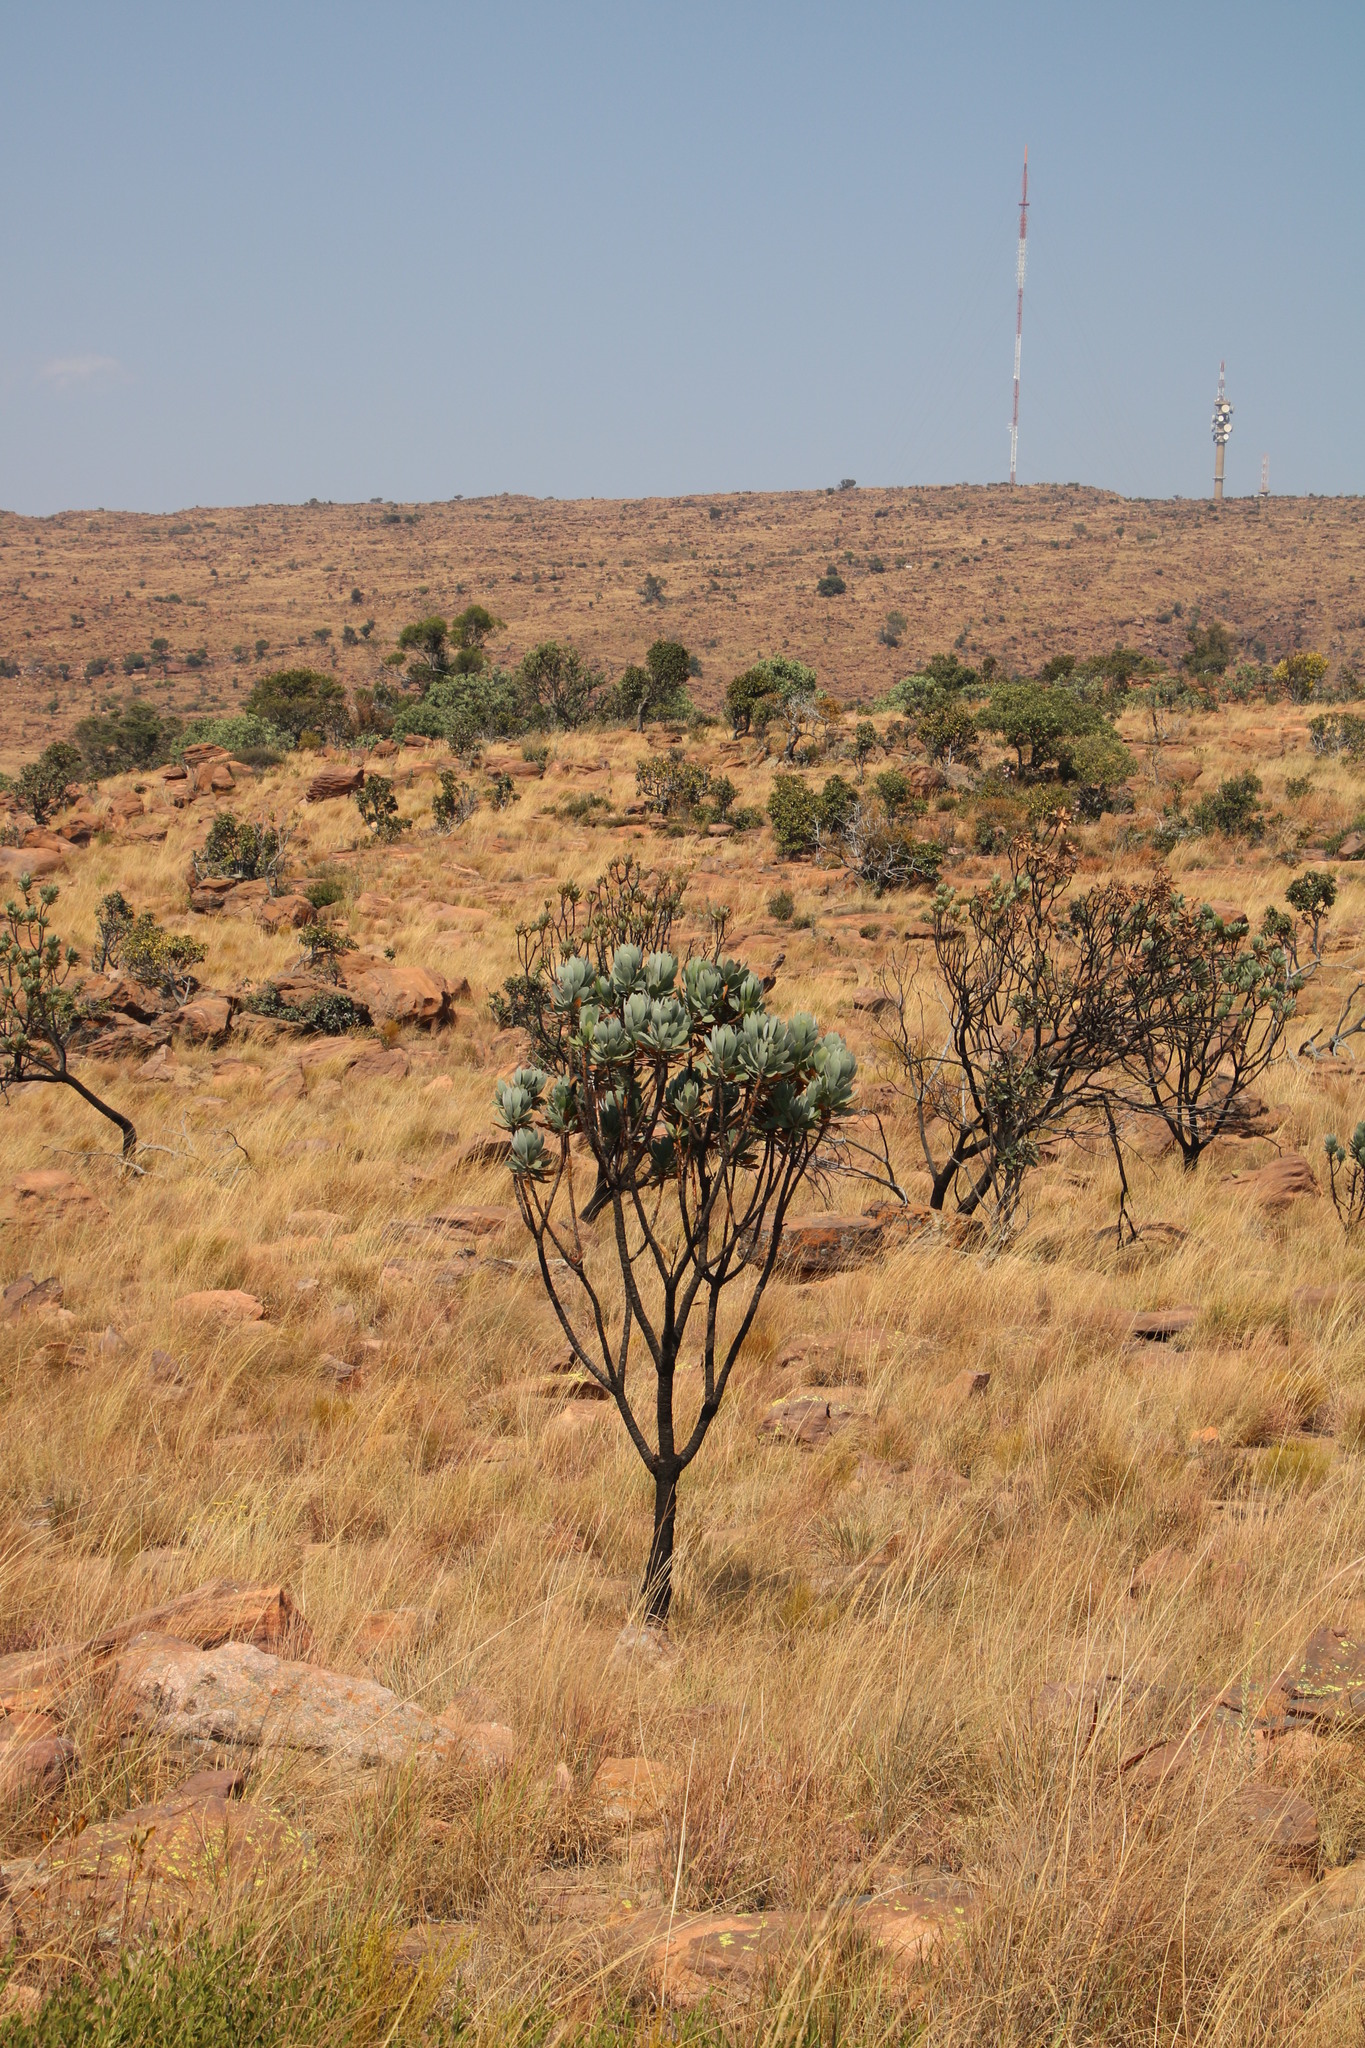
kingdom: Plantae
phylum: Tracheophyta
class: Magnoliopsida
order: Proteales
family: Proteaceae
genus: Protea
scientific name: Protea roupelliae
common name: Silver sugarbush
